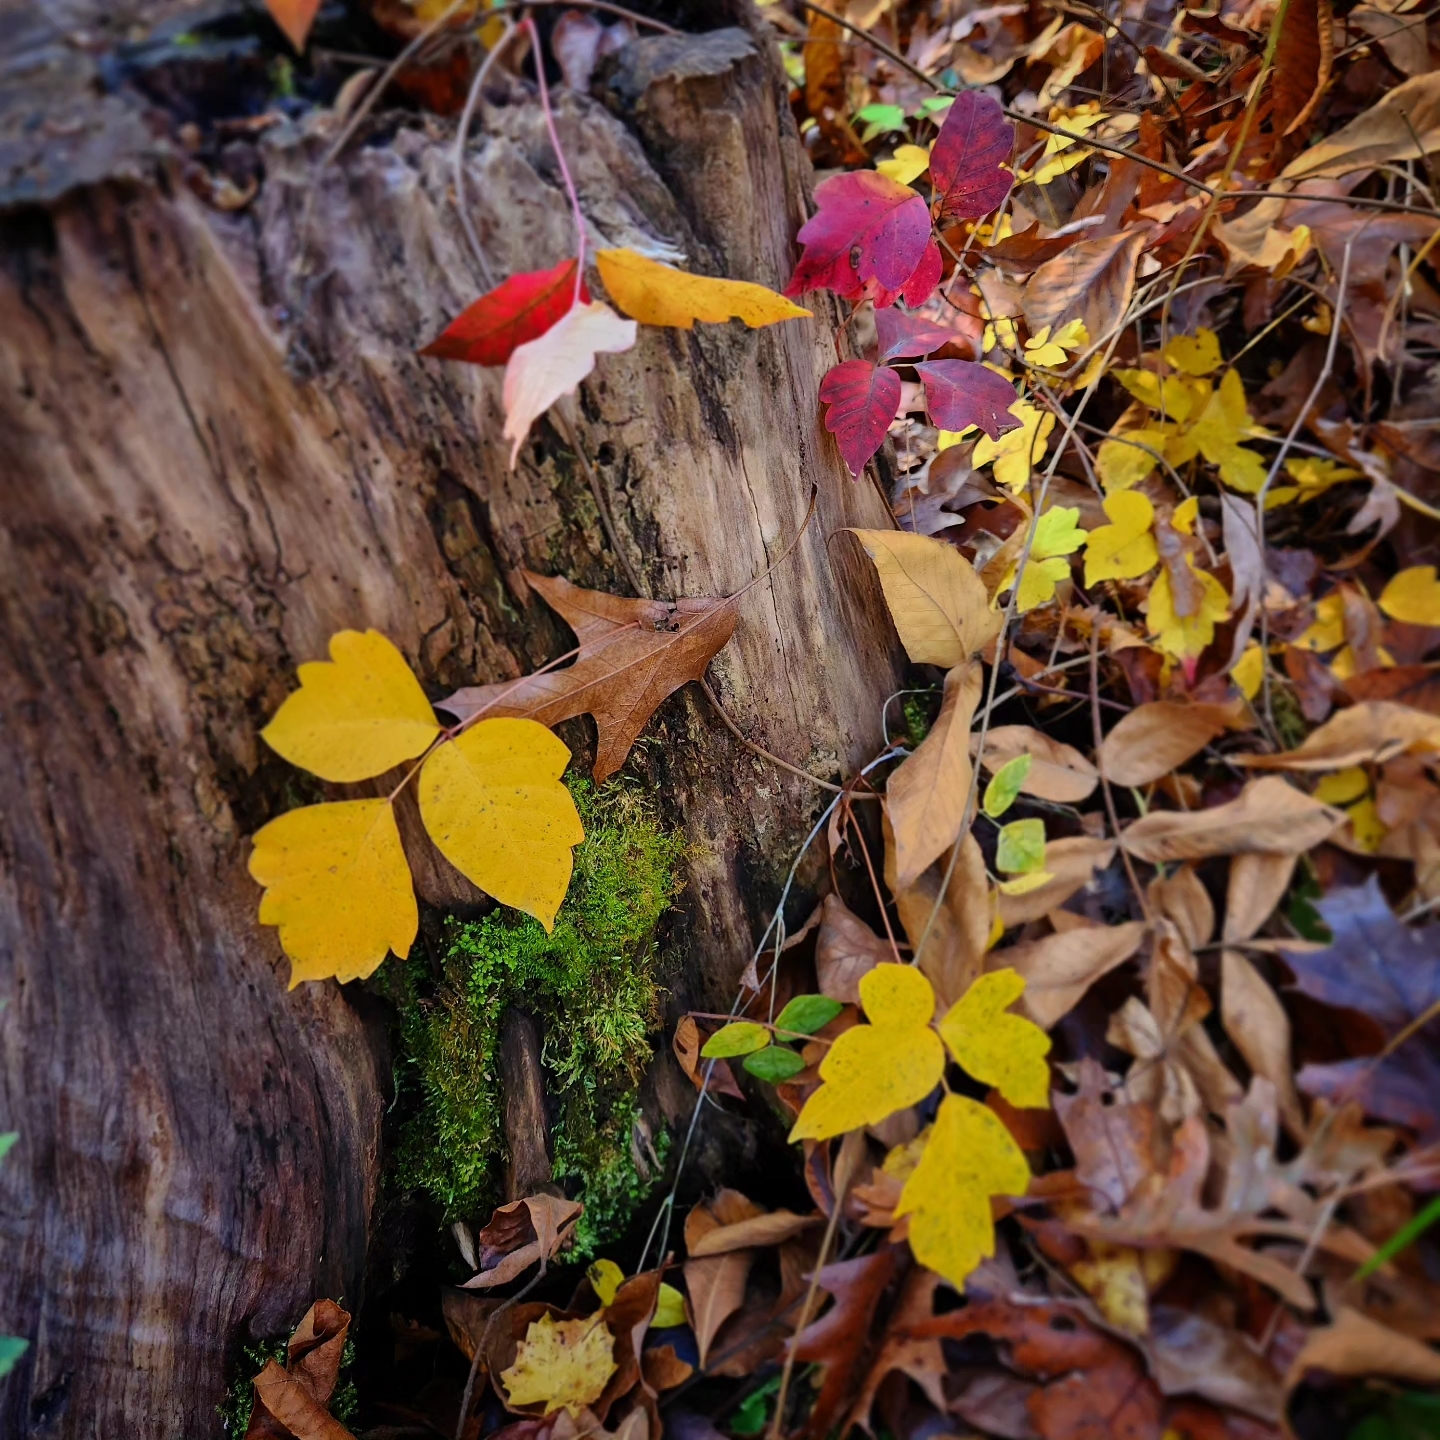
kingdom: Plantae
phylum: Tracheophyta
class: Magnoliopsida
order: Sapindales
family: Anacardiaceae
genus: Toxicodendron
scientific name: Toxicodendron radicans
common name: Poison ivy
